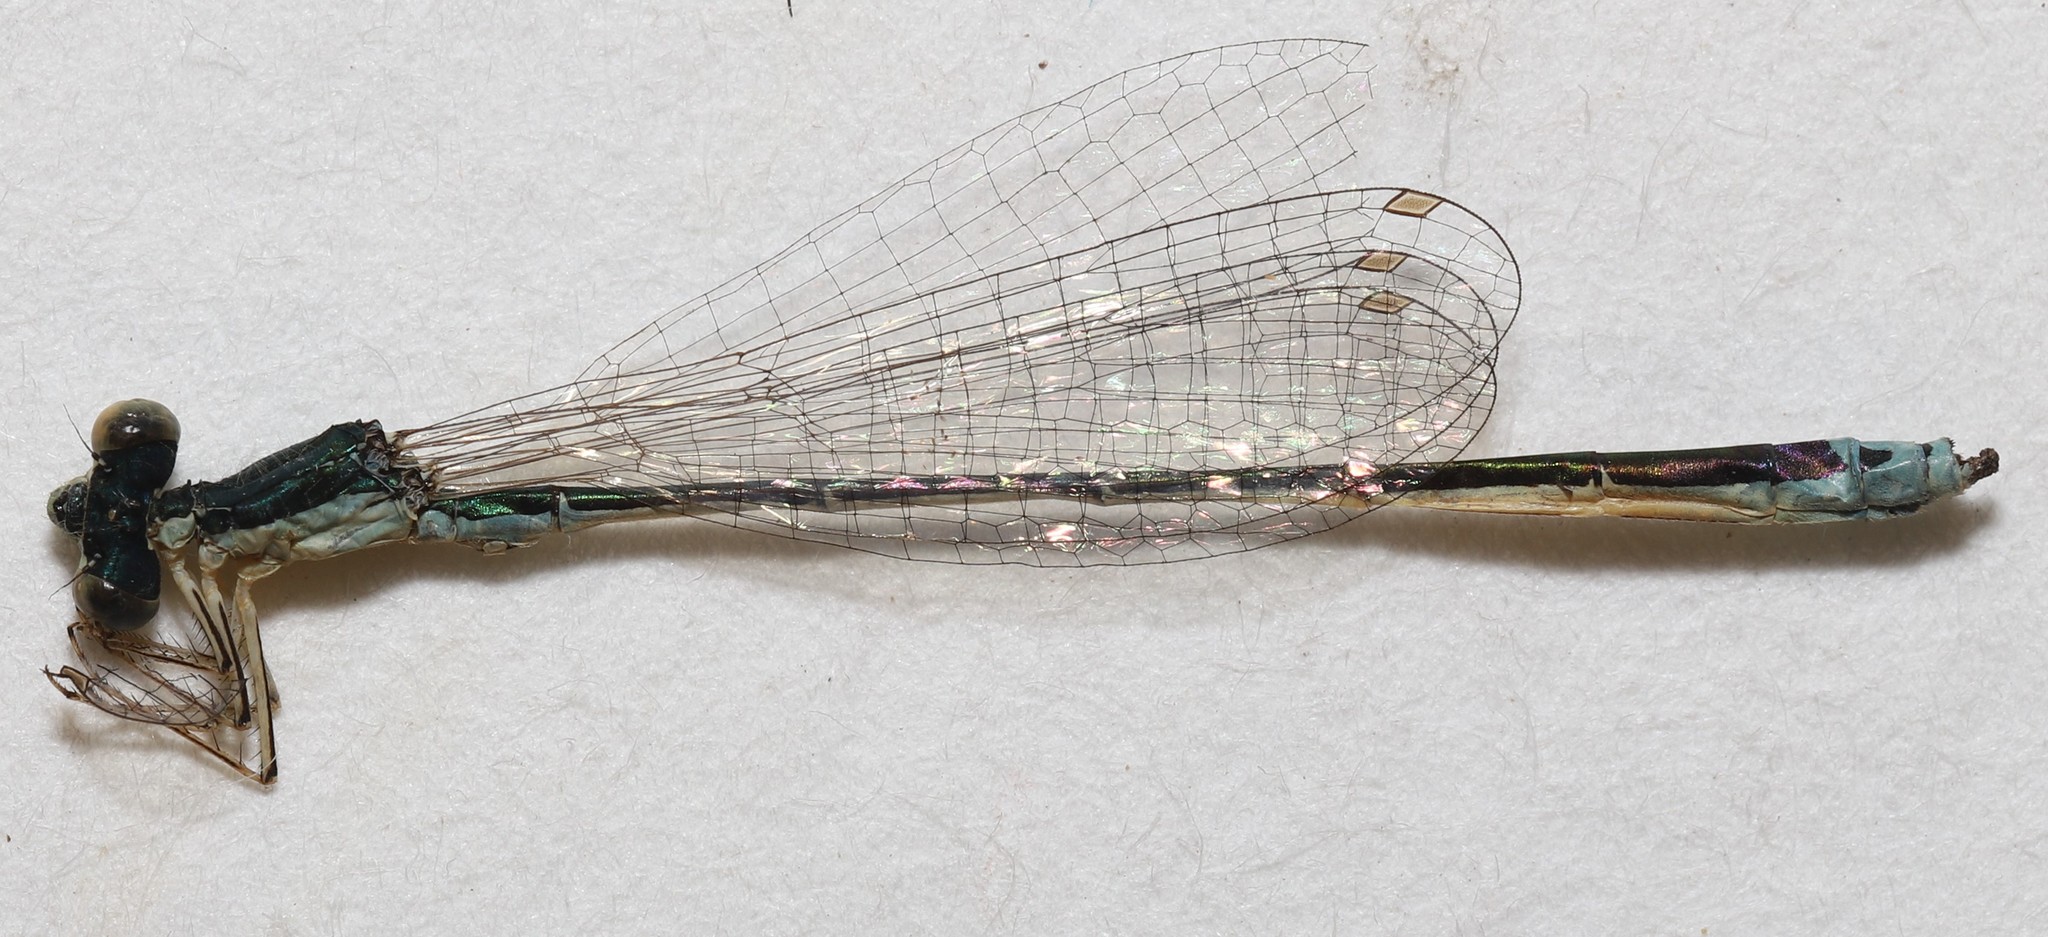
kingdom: Animalia
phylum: Arthropoda
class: Insecta
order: Odonata
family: Coenagrionidae
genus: Nehalennia
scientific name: Nehalennia irene
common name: Sedge sprite
